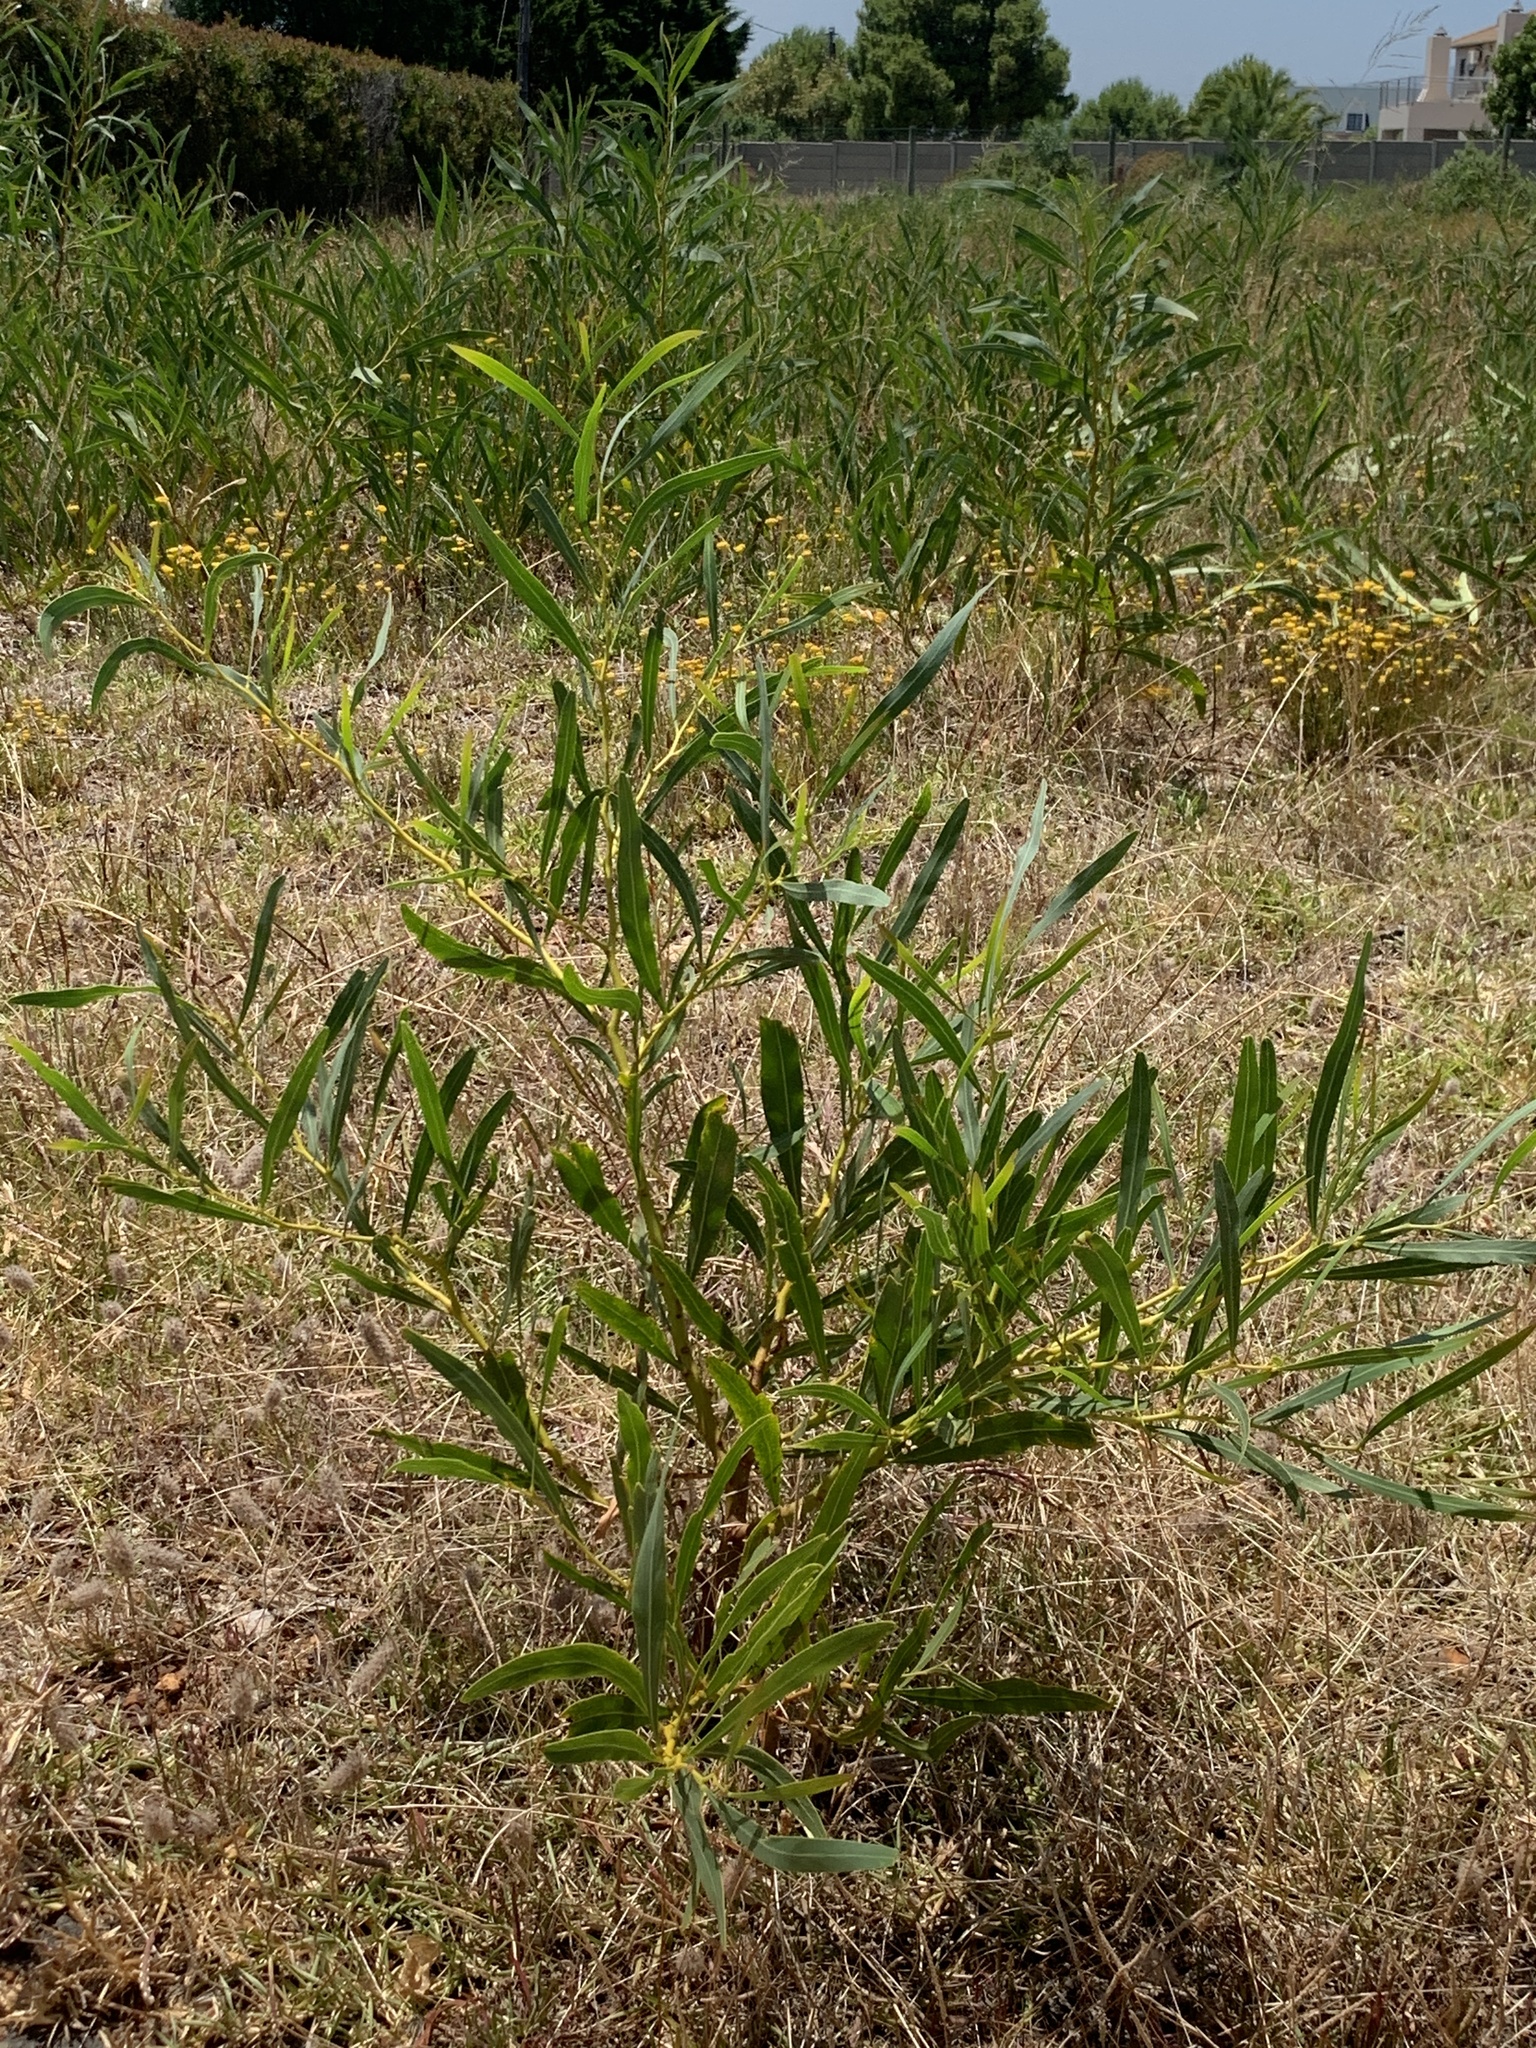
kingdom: Plantae
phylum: Tracheophyta
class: Magnoliopsida
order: Fabales
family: Fabaceae
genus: Acacia
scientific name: Acacia saligna
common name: Orange wattle
